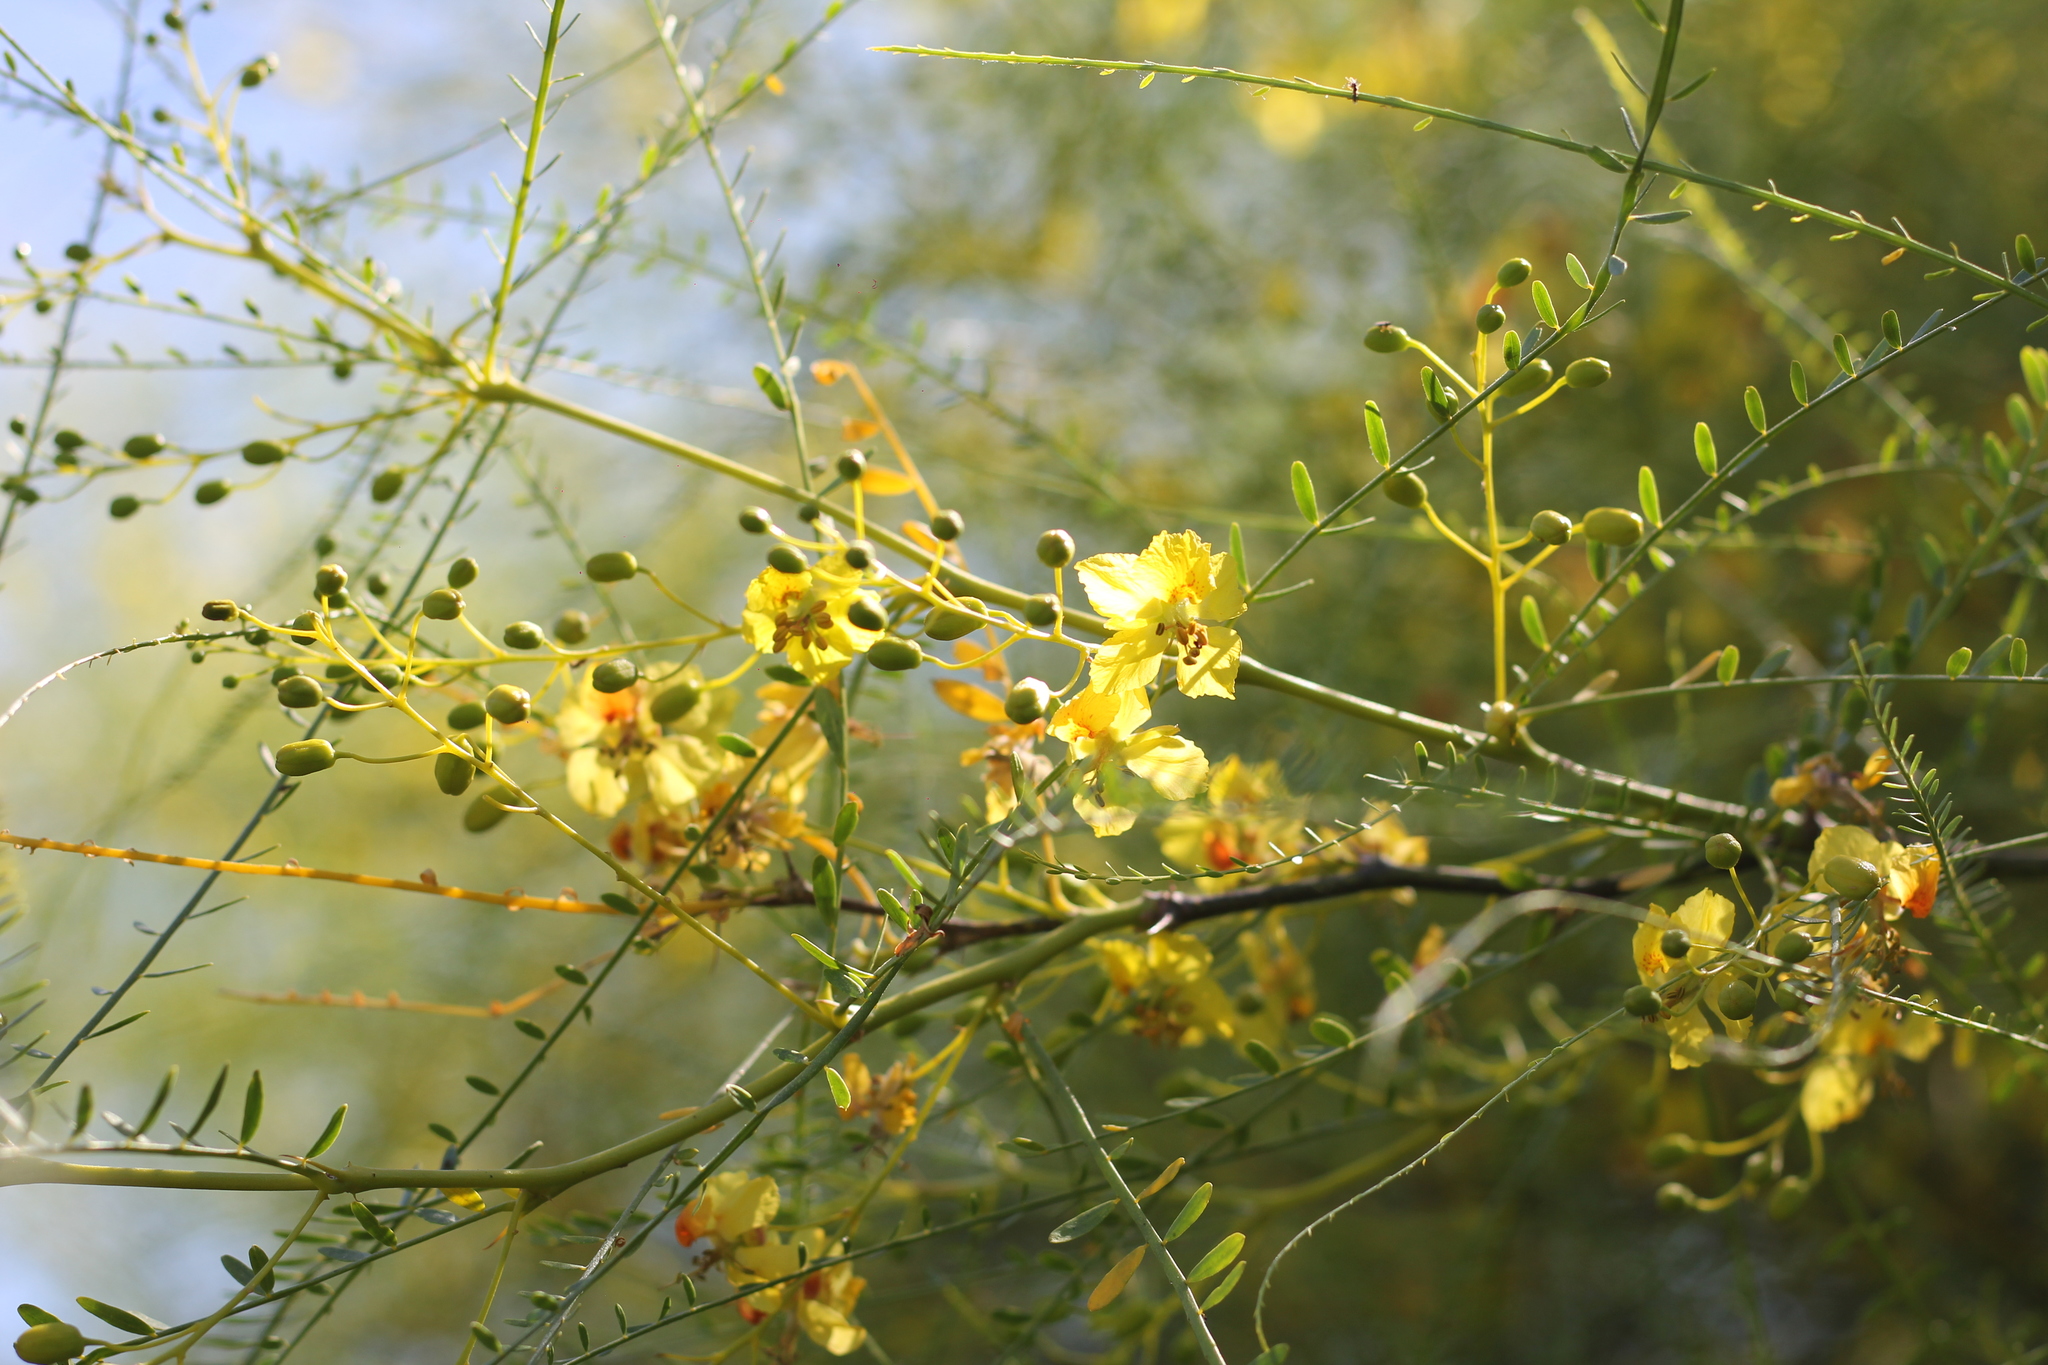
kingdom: Plantae
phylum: Tracheophyta
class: Magnoliopsida
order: Fabales
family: Fabaceae
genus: Parkinsonia
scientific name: Parkinsonia aculeata
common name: Jerusalem thorn
